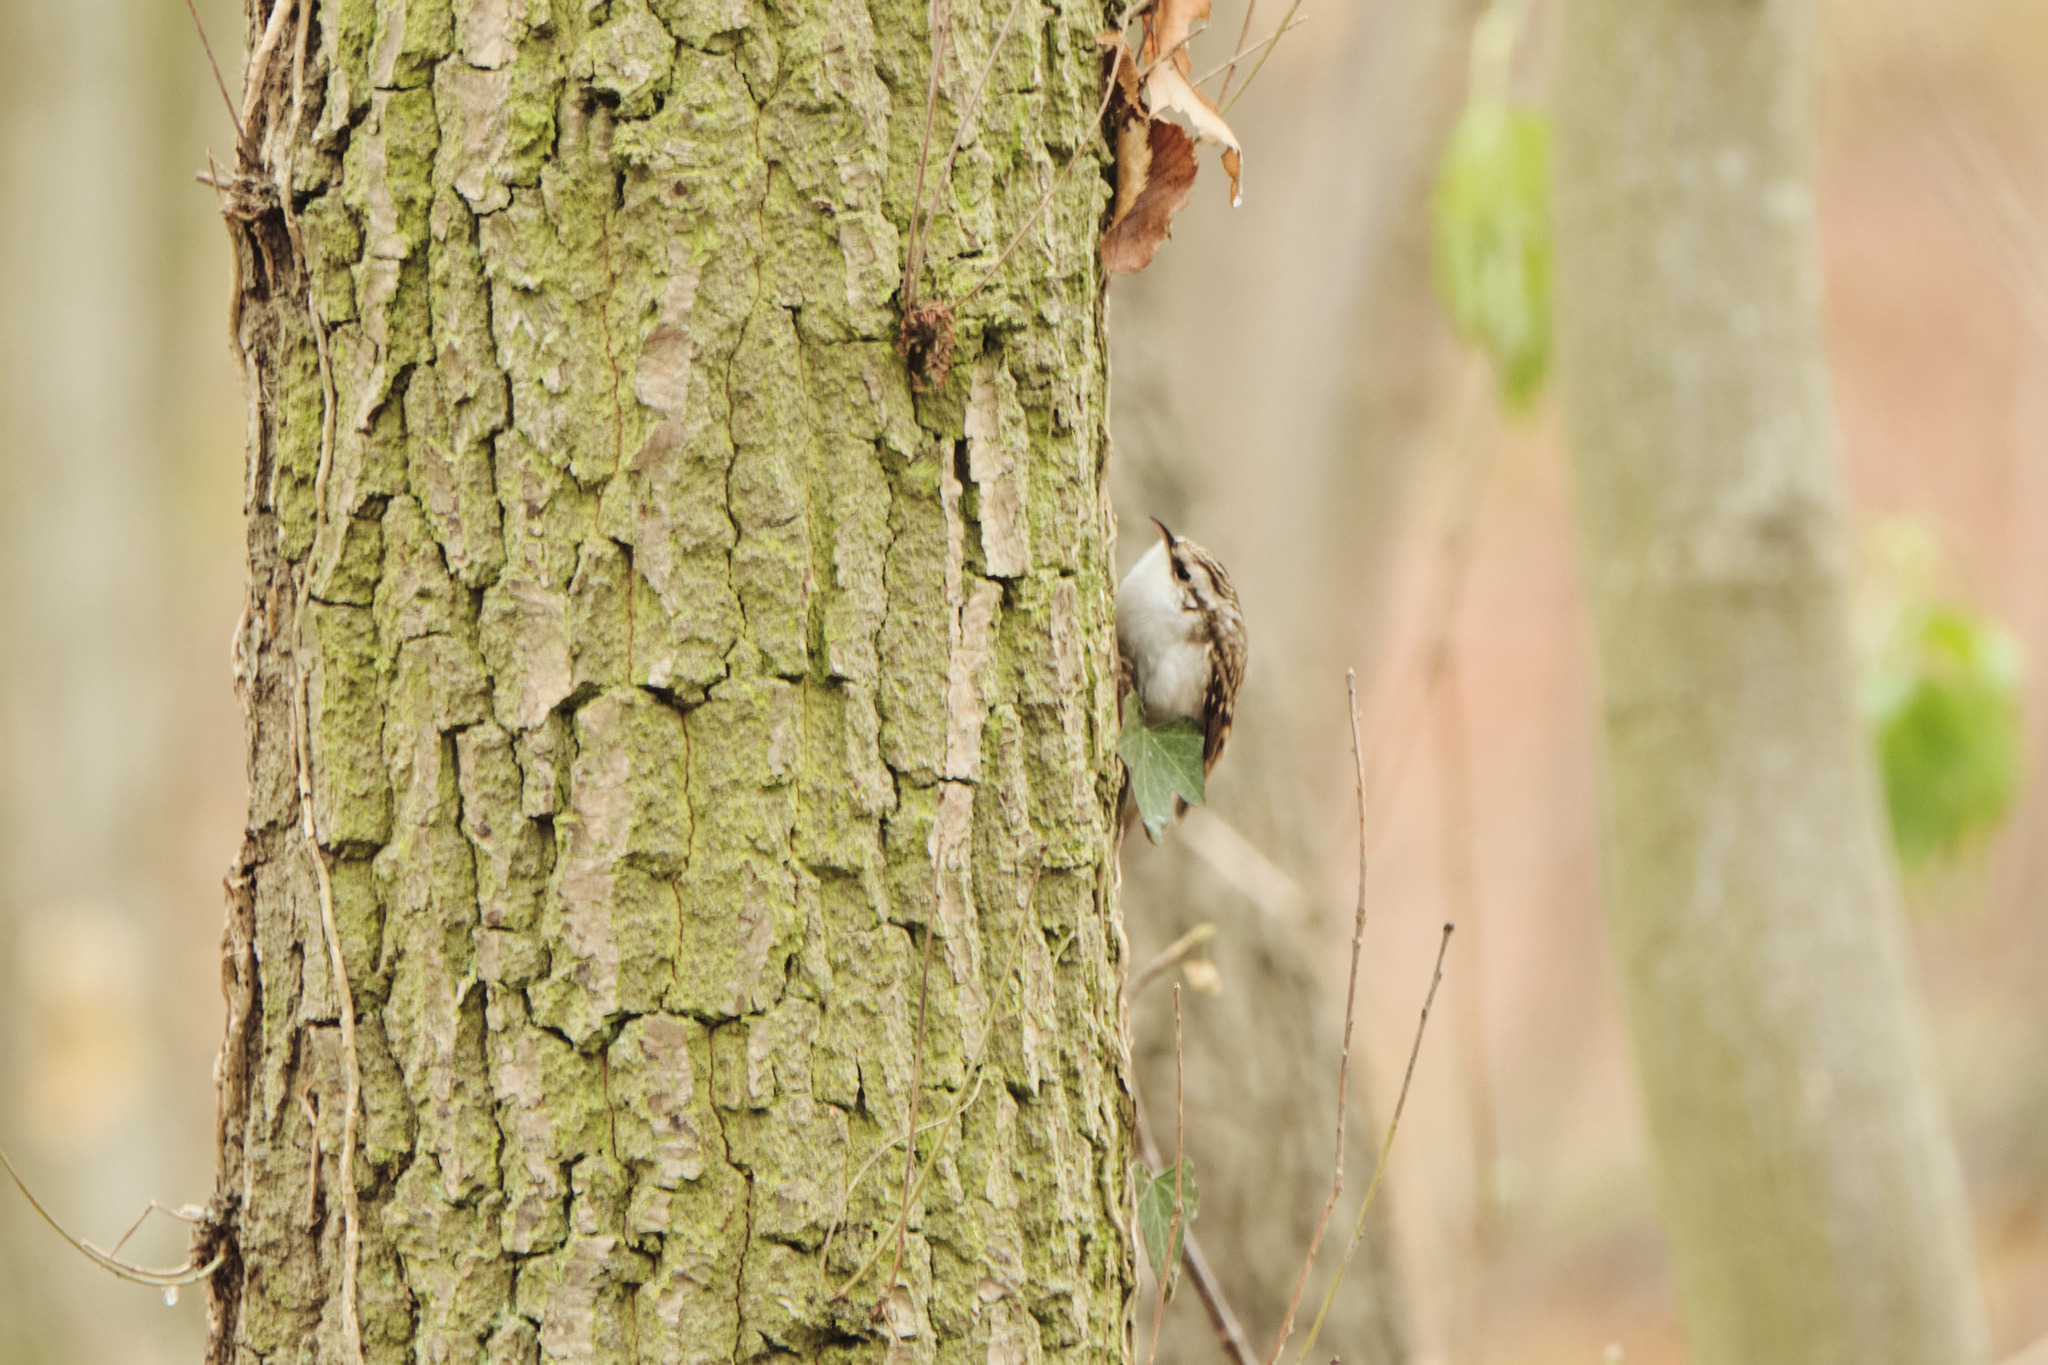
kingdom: Animalia
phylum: Chordata
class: Aves
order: Passeriformes
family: Certhiidae
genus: Certhia
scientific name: Certhia brachydactyla
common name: Short-toed treecreeper
